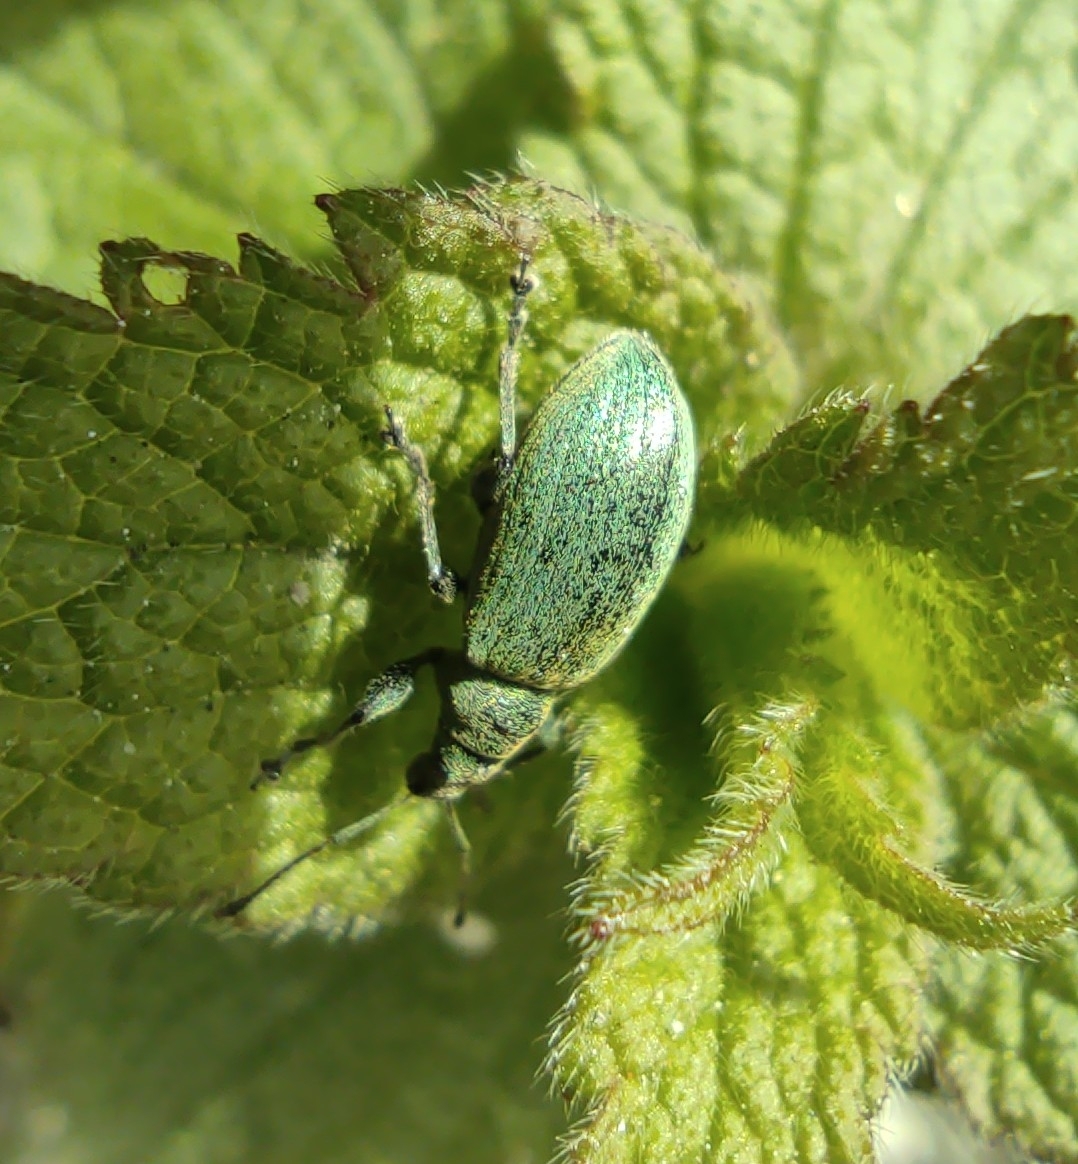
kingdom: Animalia
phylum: Arthropoda
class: Insecta
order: Coleoptera
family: Curculionidae
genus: Phyllobius
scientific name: Phyllobius pomaceus
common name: Green nettle weevil
